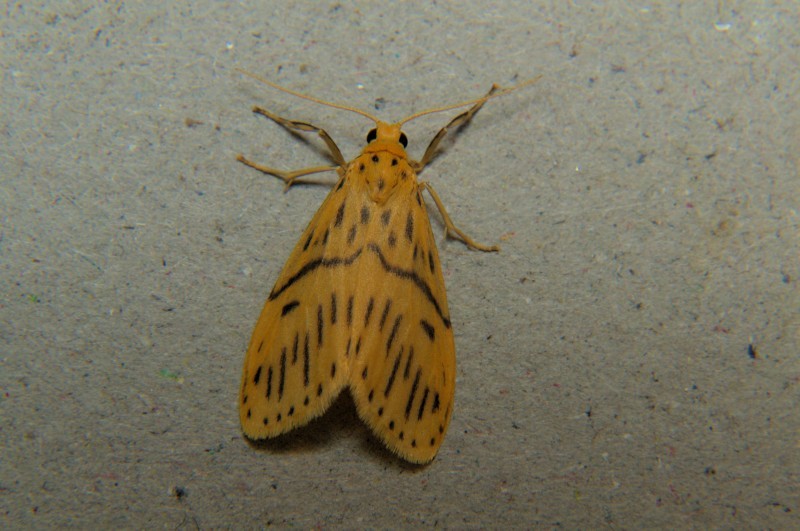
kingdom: Animalia
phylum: Arthropoda
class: Insecta
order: Lepidoptera
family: Erebidae
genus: Miltochrista
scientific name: Miltochrista strigipennis
